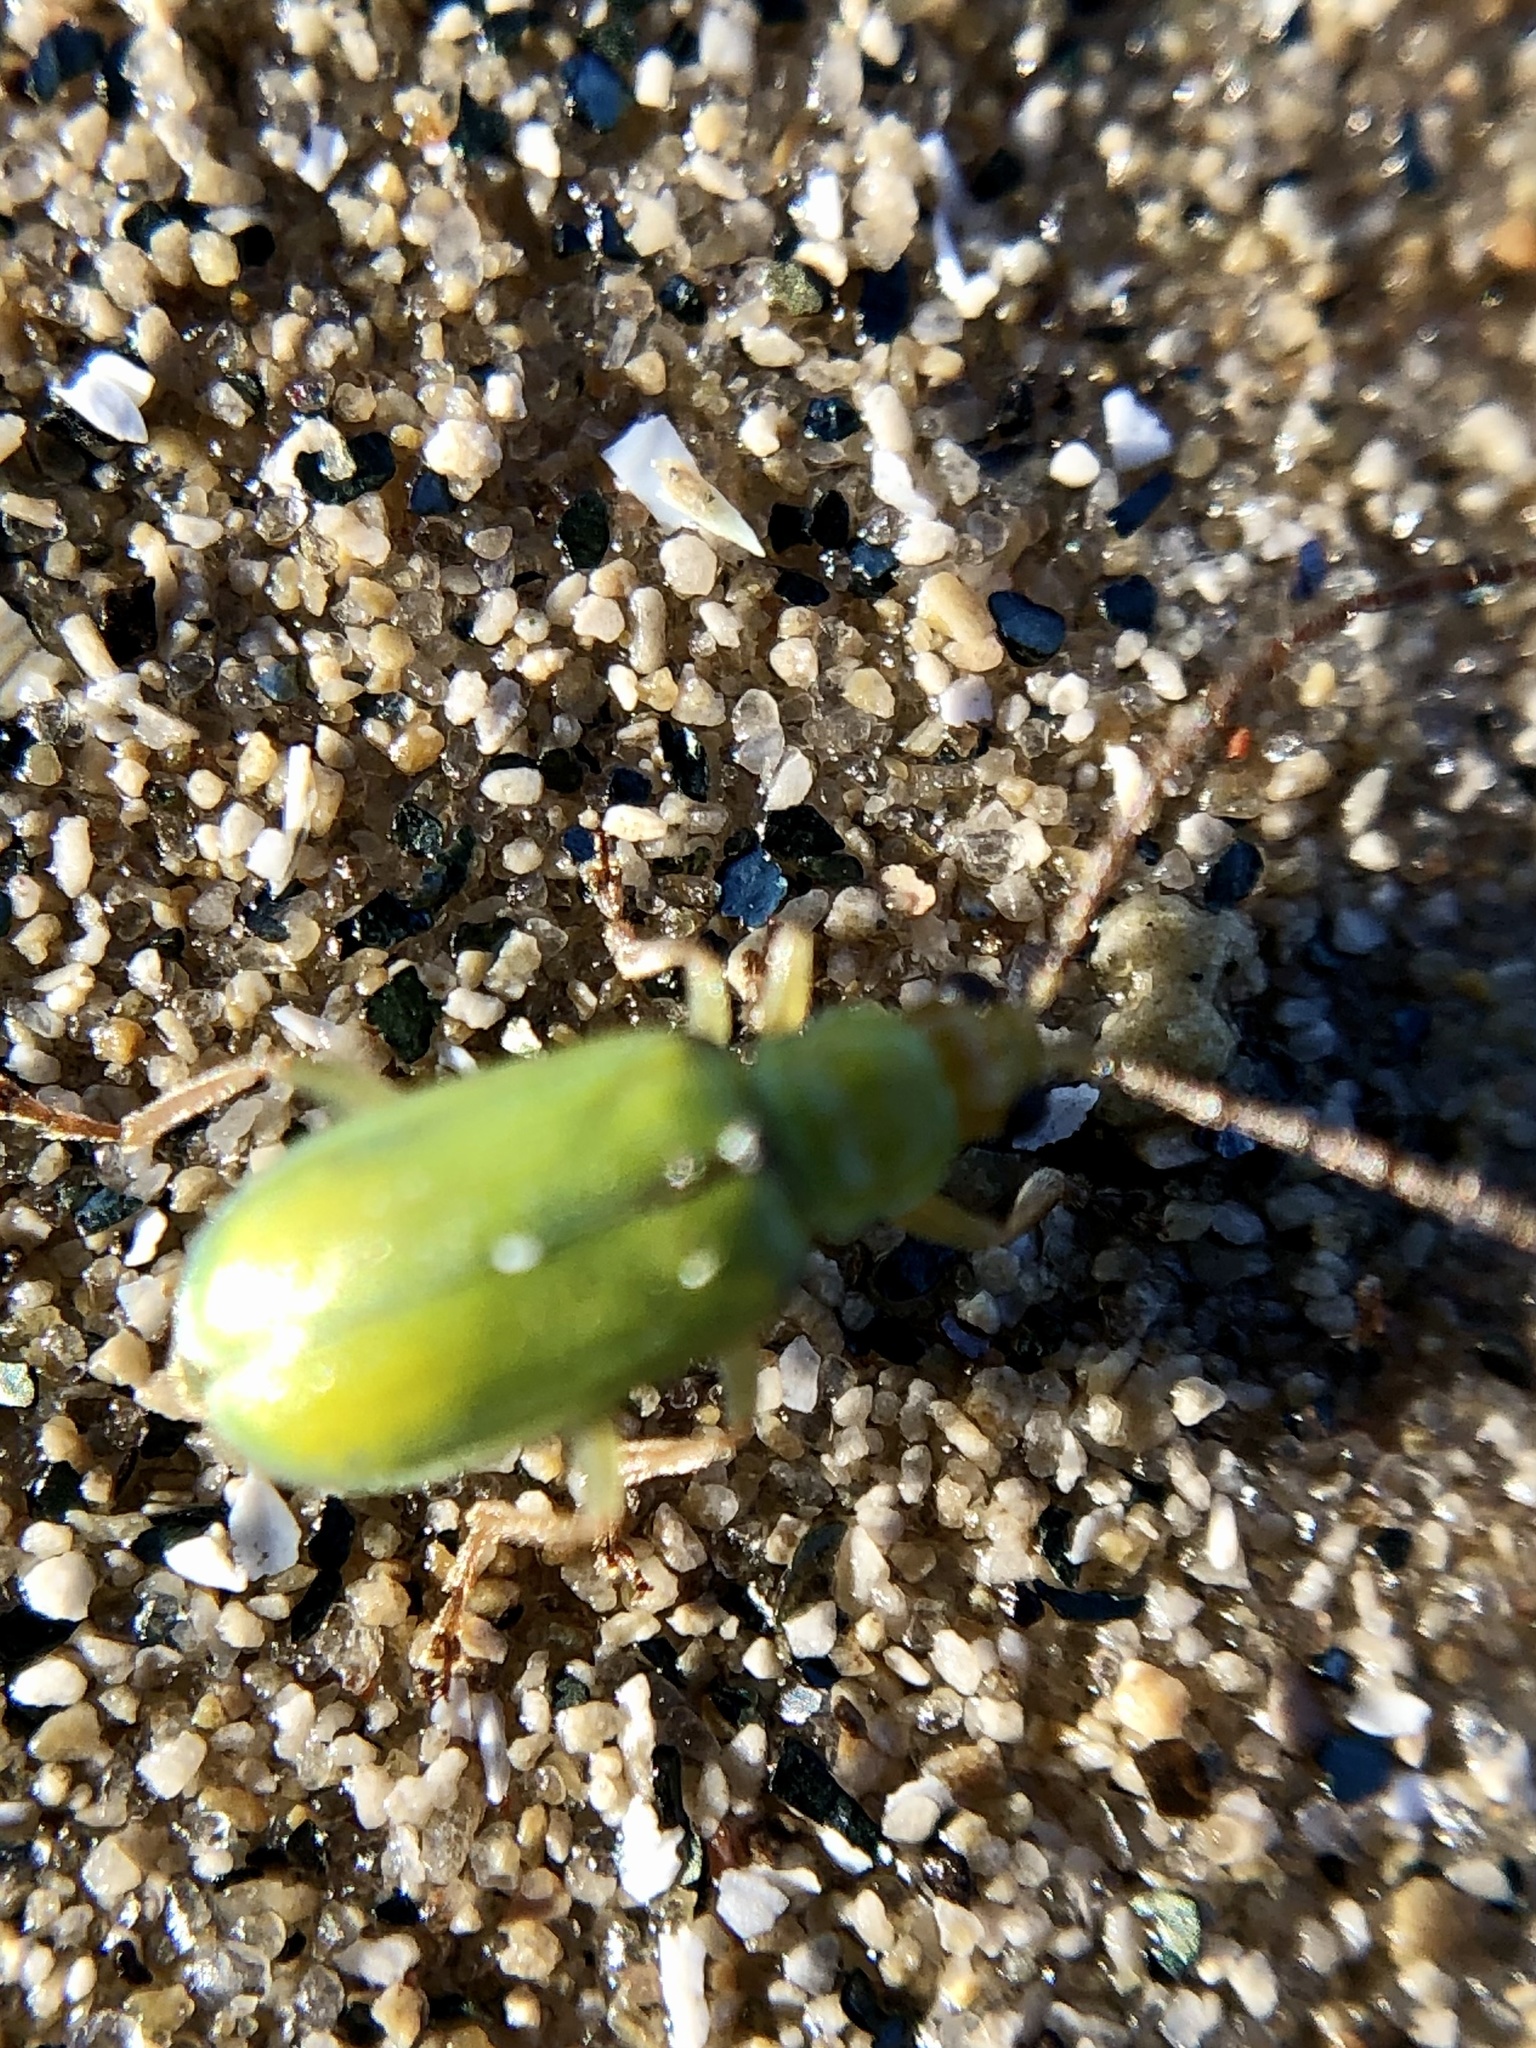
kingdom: Animalia
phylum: Arthropoda
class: Insecta
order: Coleoptera
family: Chrysomelidae
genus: Diabrotica
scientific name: Diabrotica barberi
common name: Northern corn rootworm
